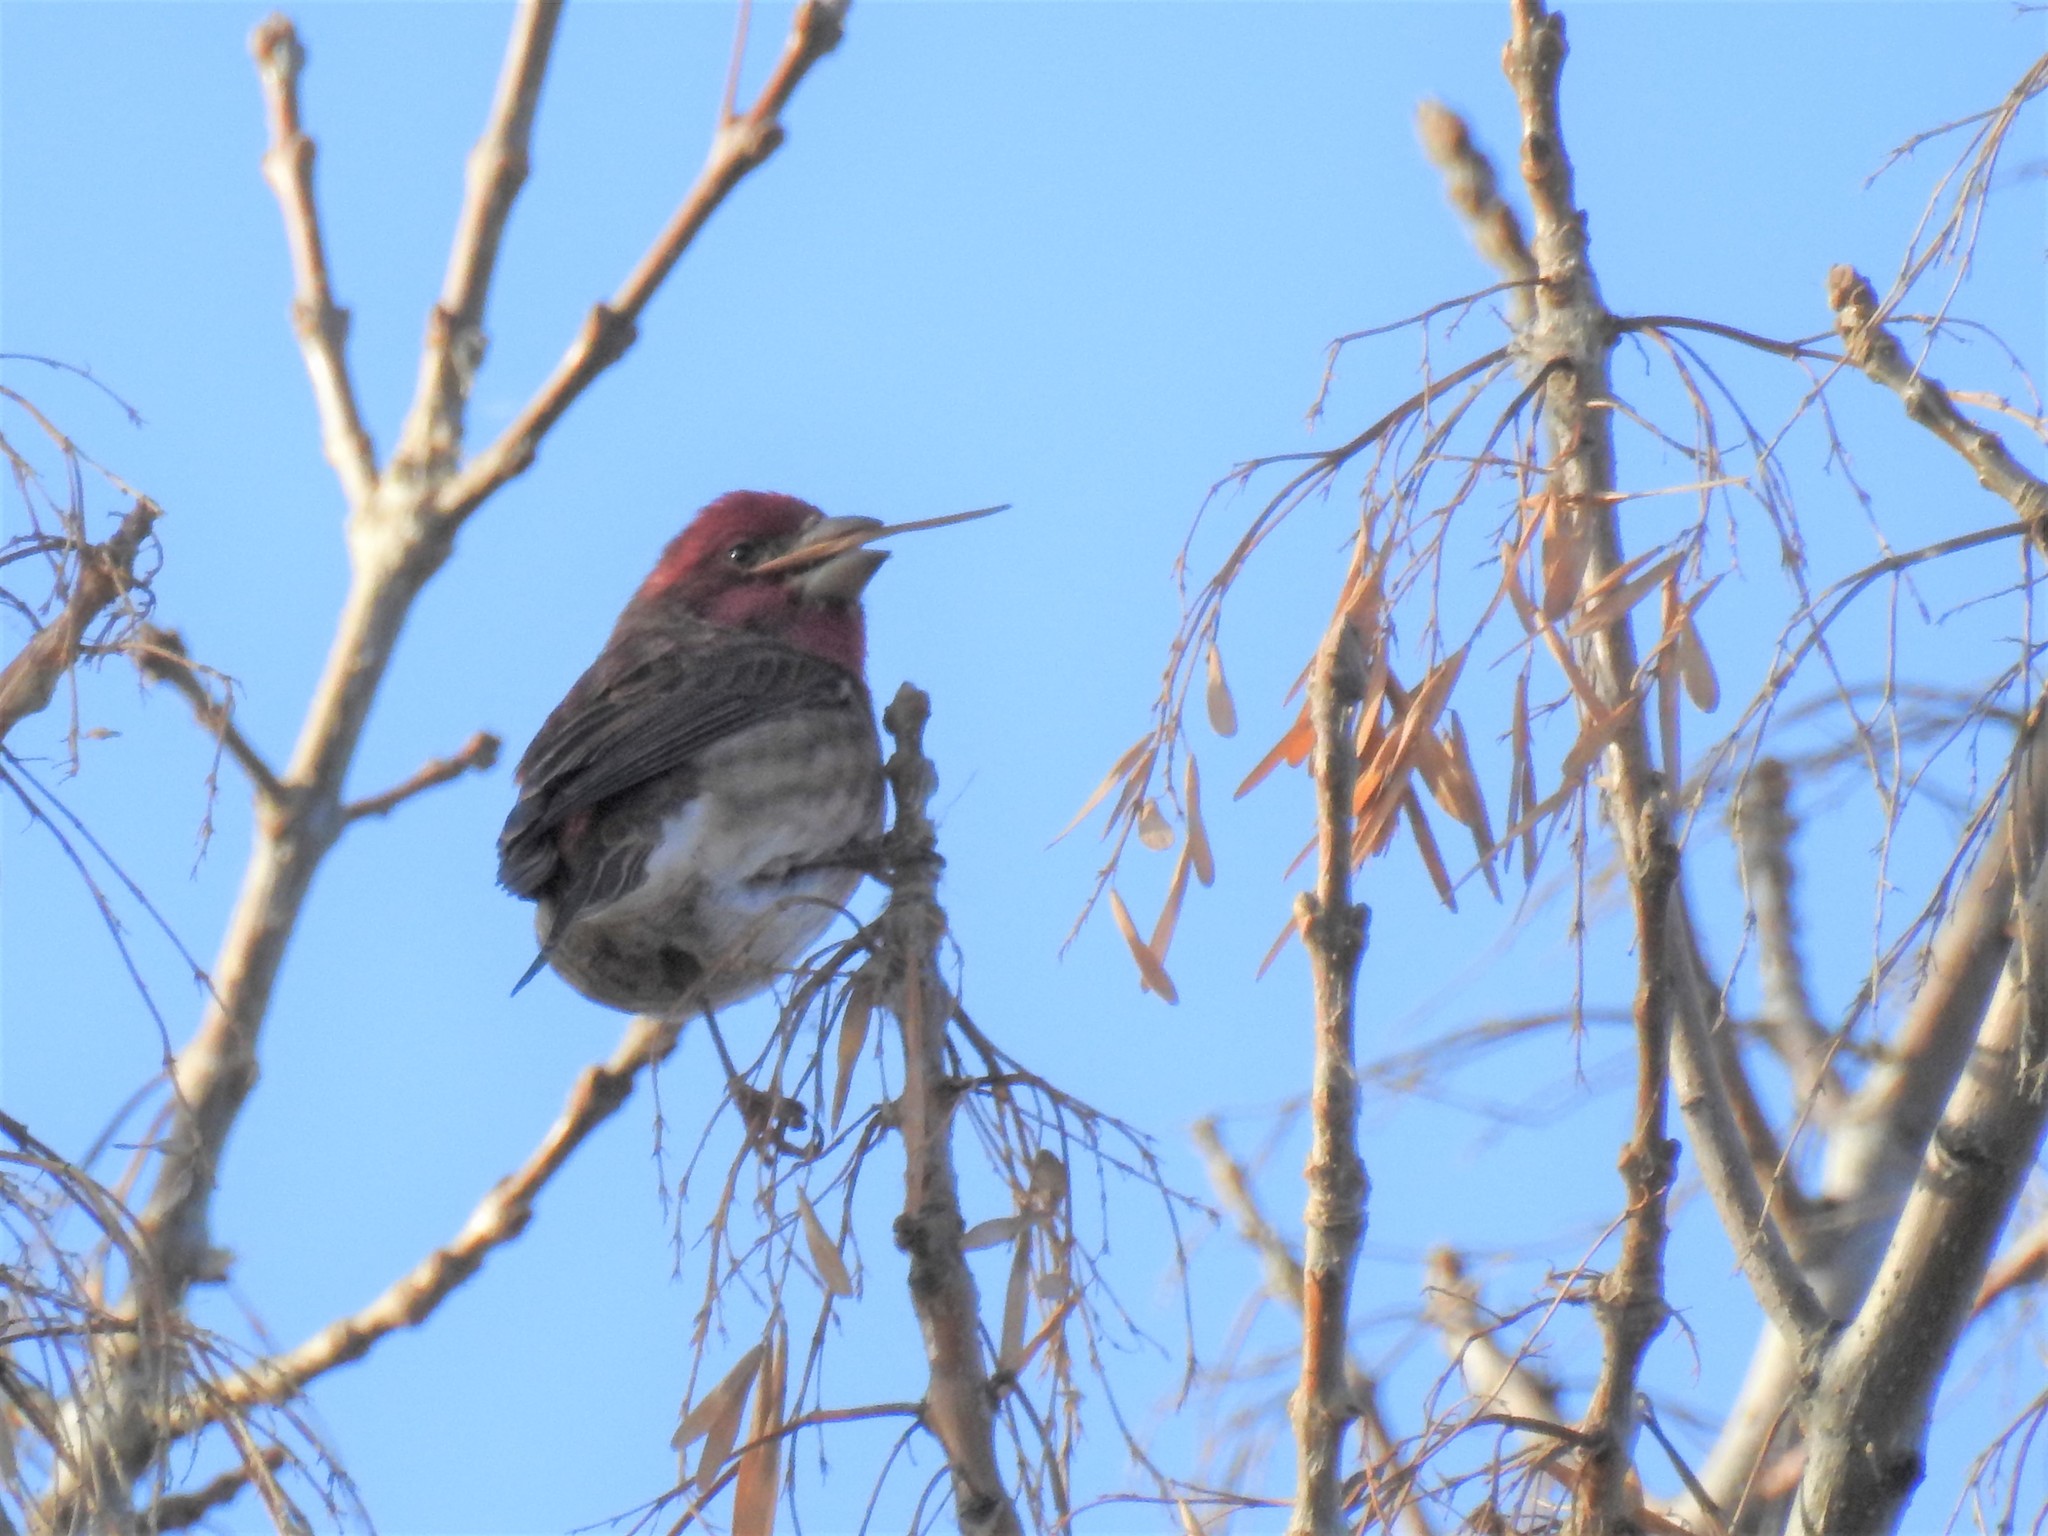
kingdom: Animalia
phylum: Chordata
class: Aves
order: Passeriformes
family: Fringillidae
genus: Haemorhous
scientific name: Haemorhous purpureus
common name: Purple finch
